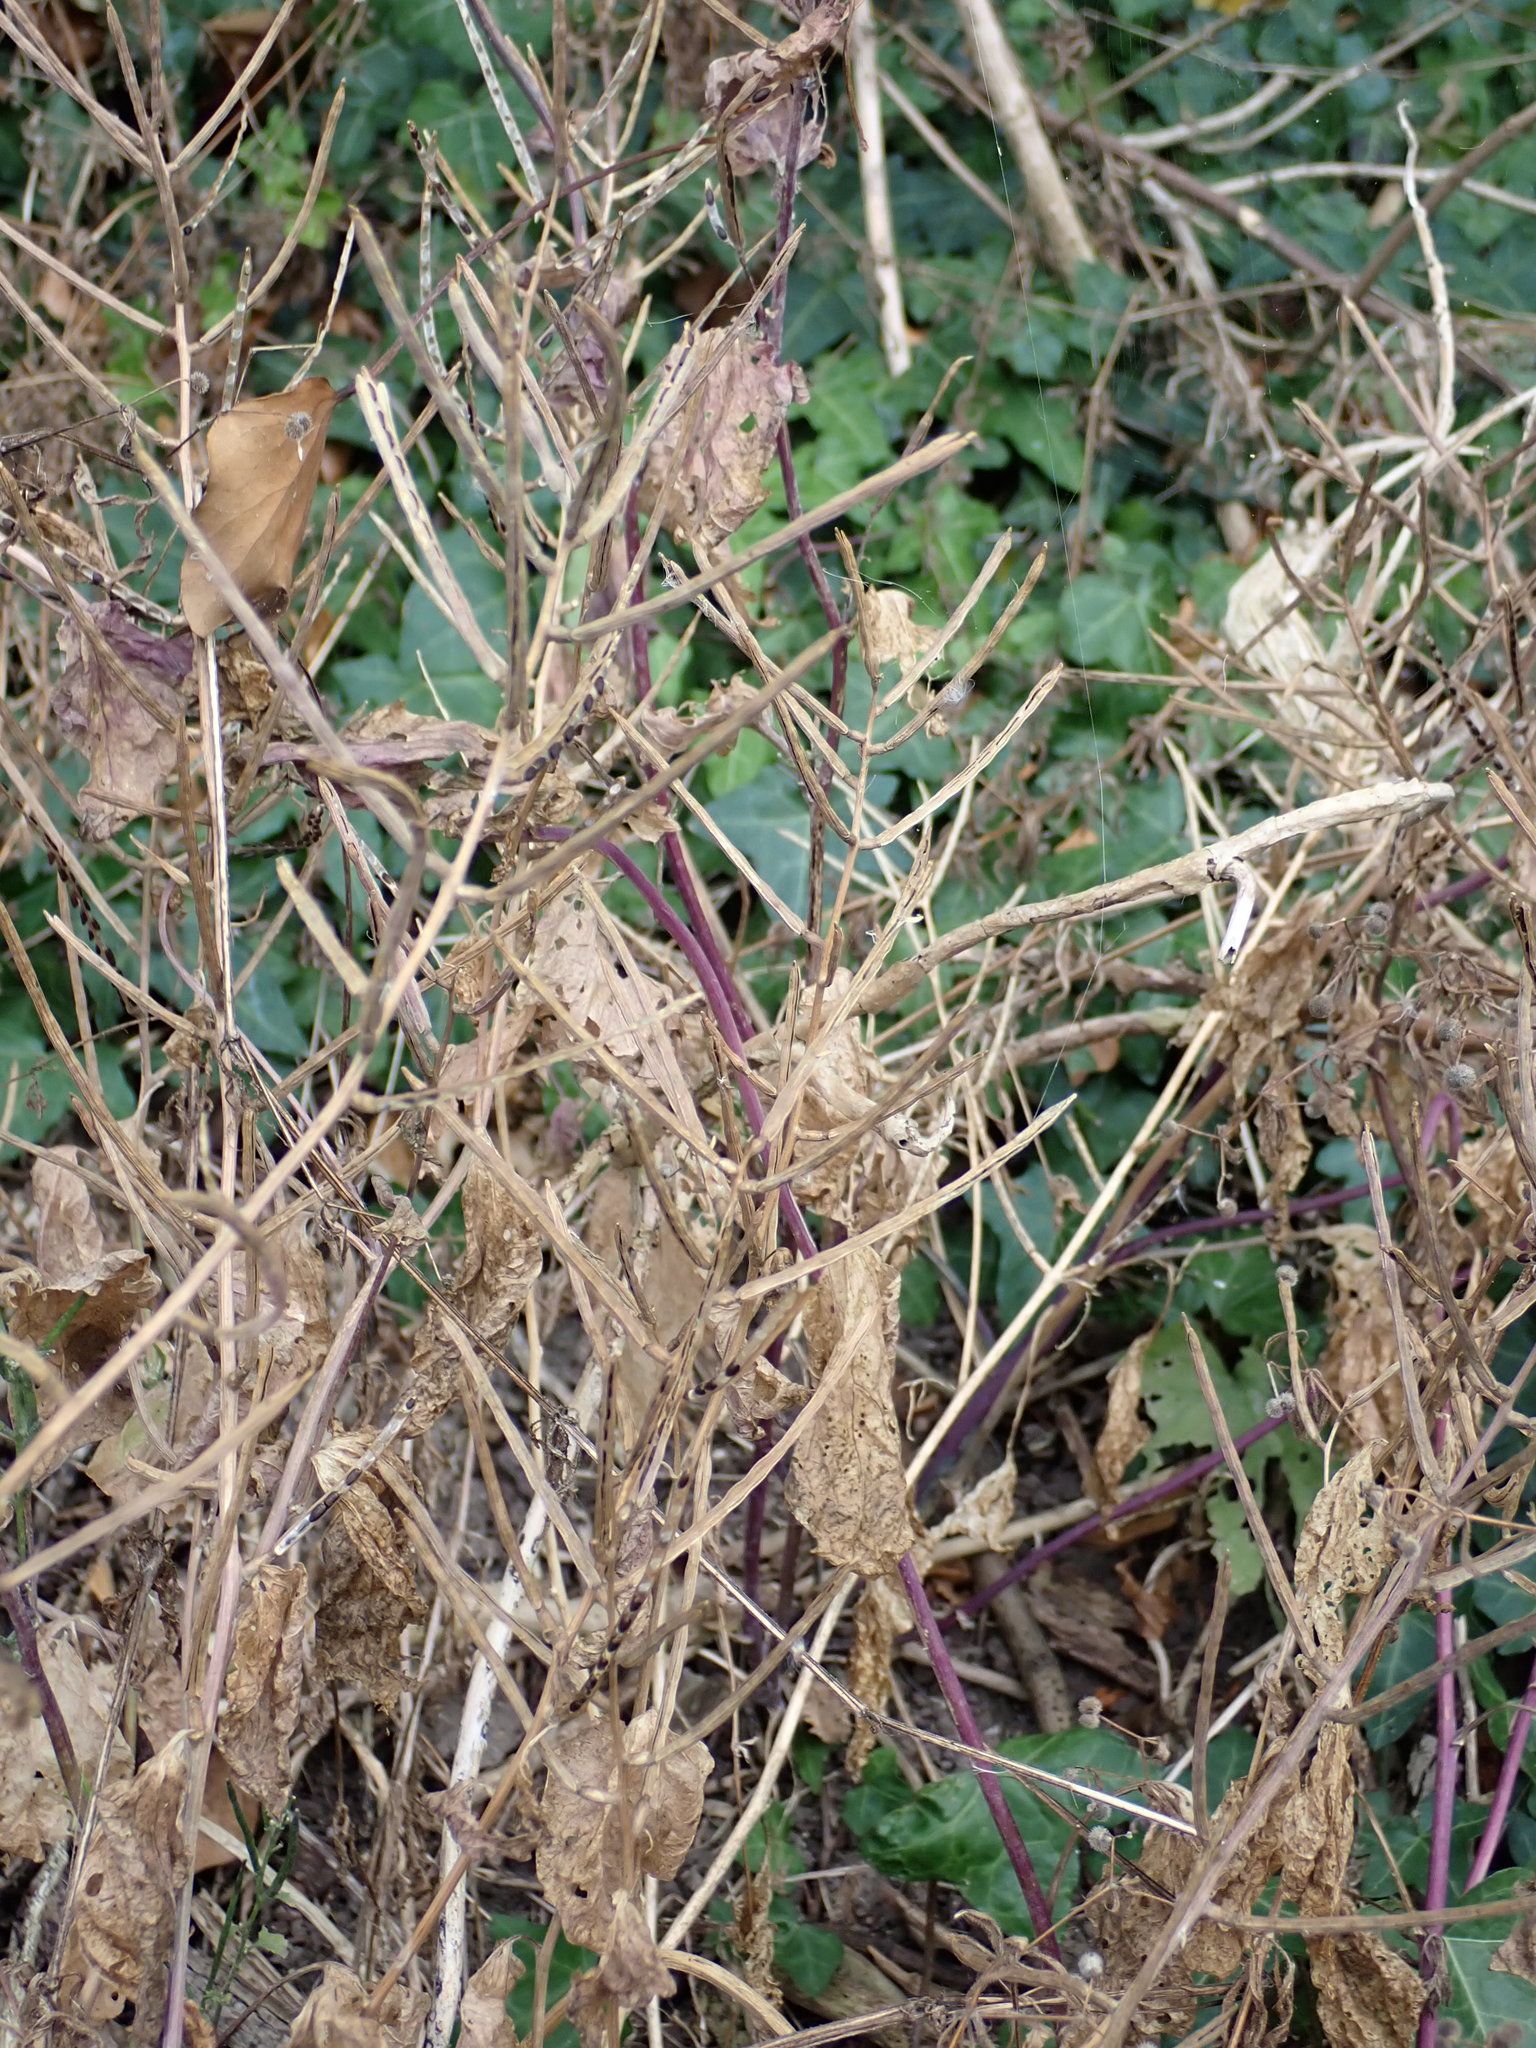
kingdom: Plantae
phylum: Tracheophyta
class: Magnoliopsida
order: Brassicales
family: Brassicaceae
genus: Alliaria
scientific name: Alliaria petiolata
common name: Garlic mustard
